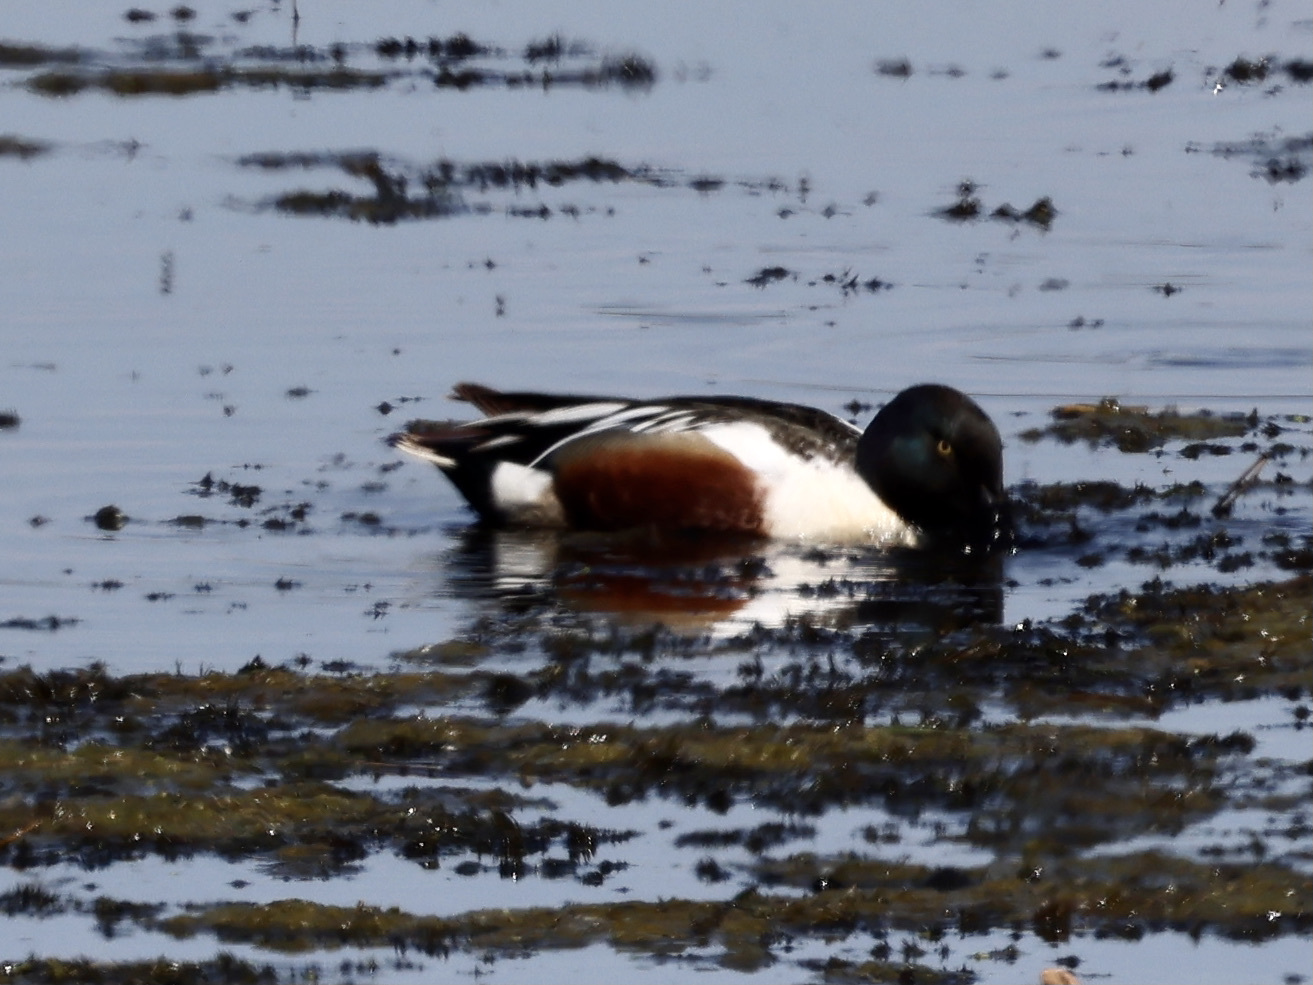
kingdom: Animalia
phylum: Chordata
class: Aves
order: Anseriformes
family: Anatidae
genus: Spatula
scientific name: Spatula clypeata
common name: Northern shoveler
